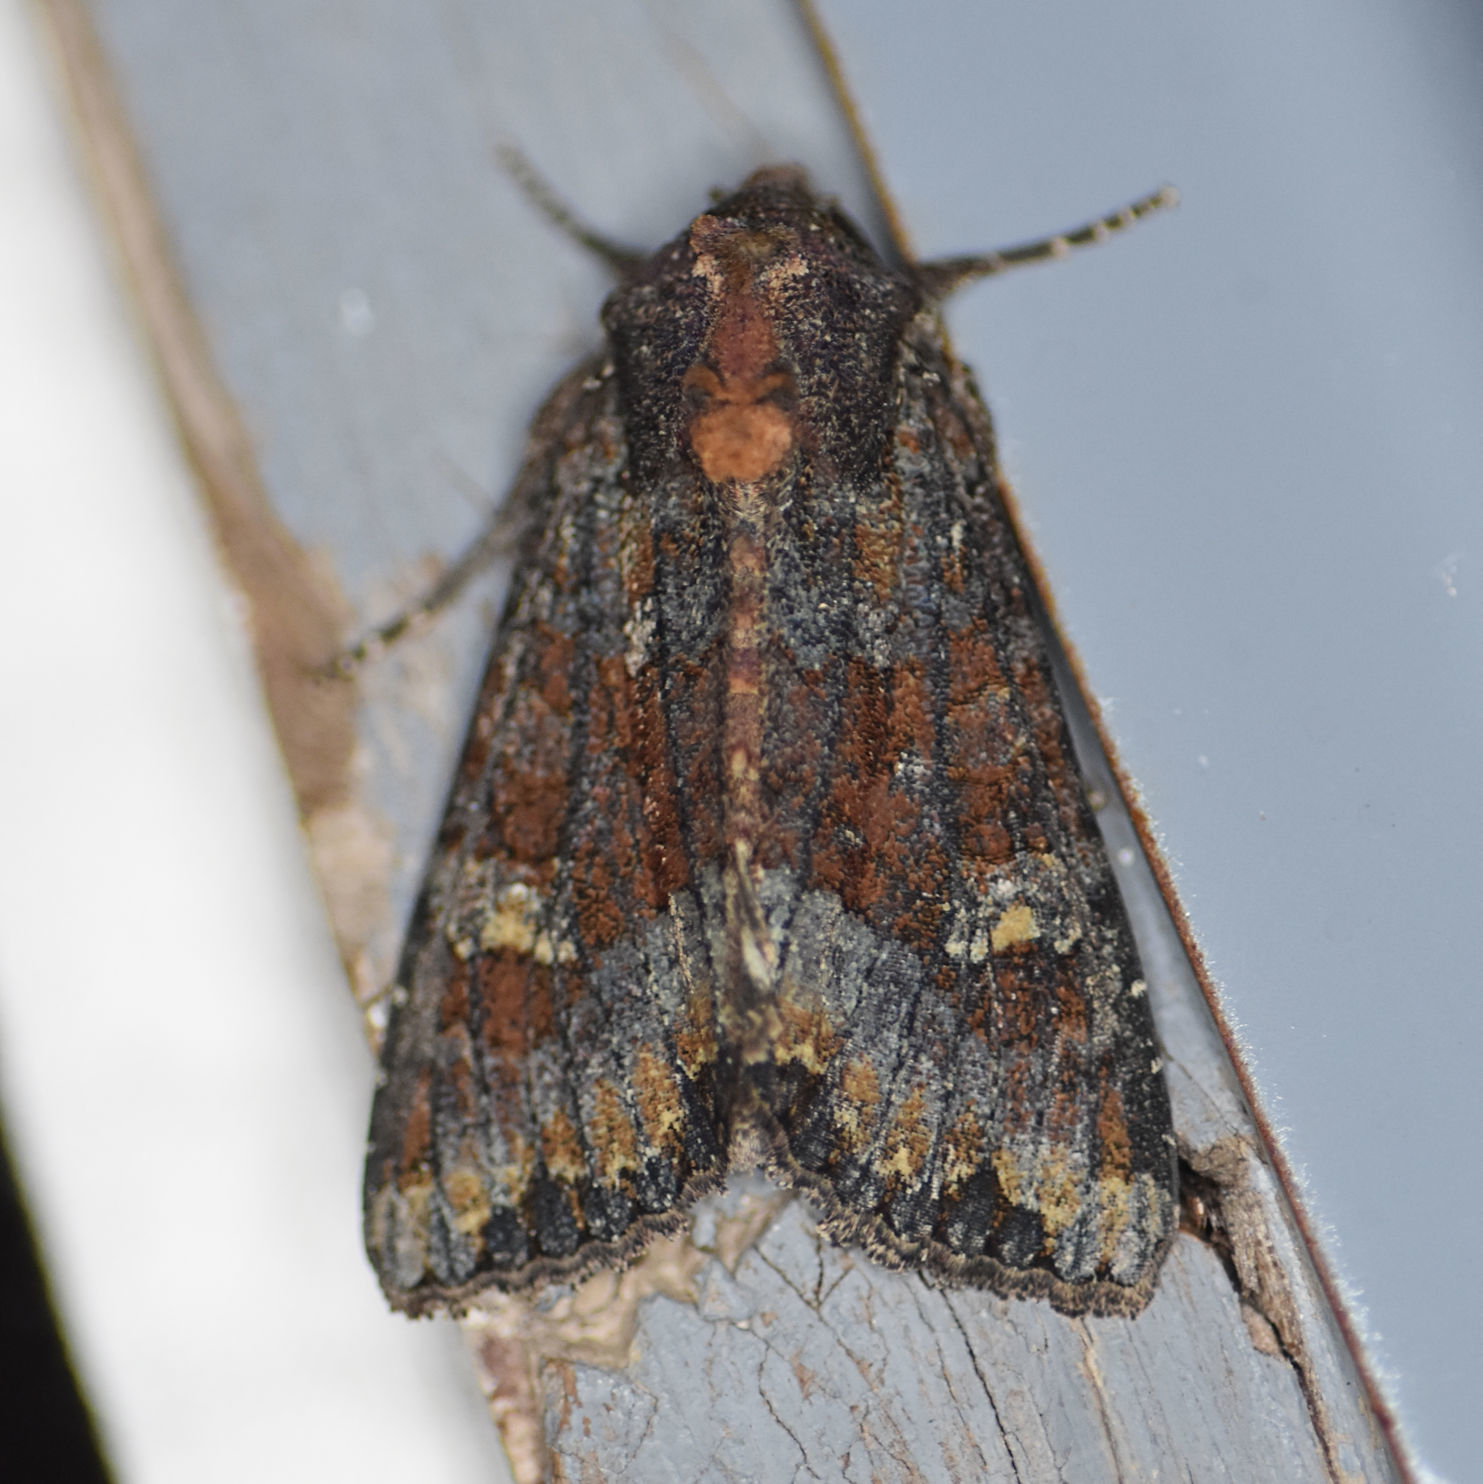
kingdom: Animalia
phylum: Arthropoda
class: Insecta
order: Lepidoptera
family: Noctuidae
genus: Apamea
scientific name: Apamea amputatrix
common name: Yellow-headed cutworm moth
